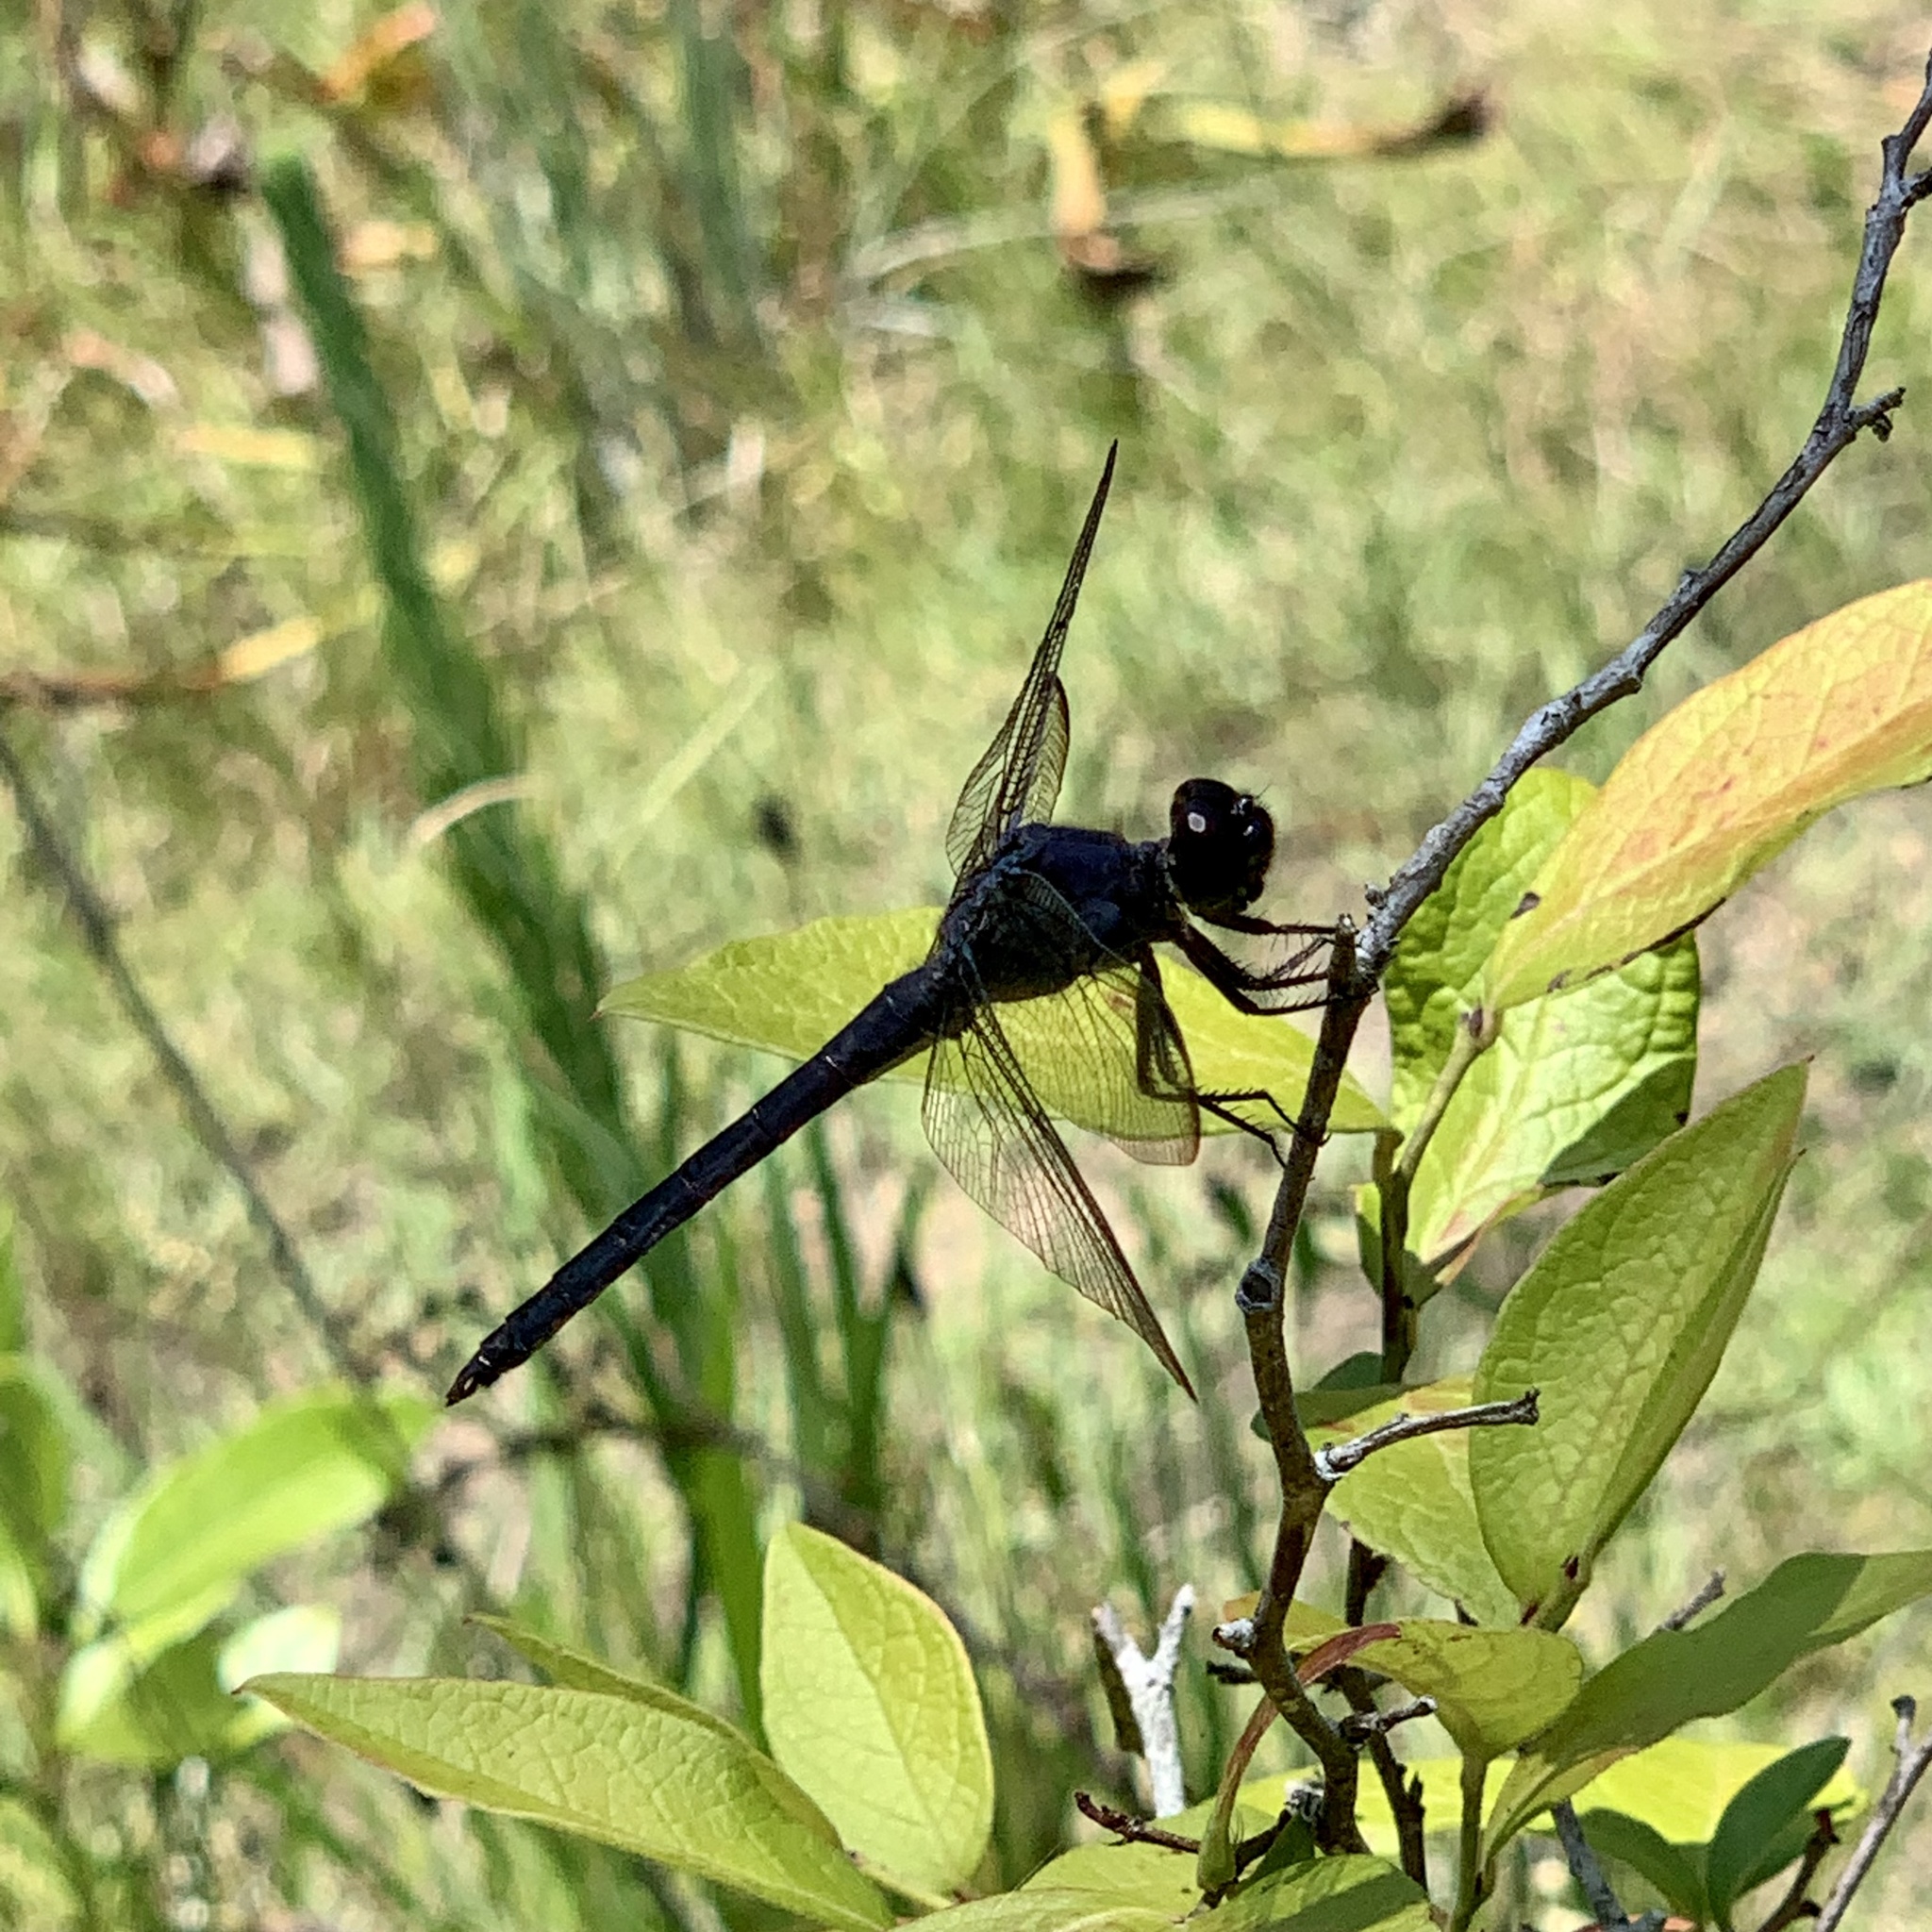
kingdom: Animalia
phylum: Arthropoda
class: Insecta
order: Odonata
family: Libellulidae
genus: Libellula
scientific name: Libellula incesta
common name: Slaty skimmer
